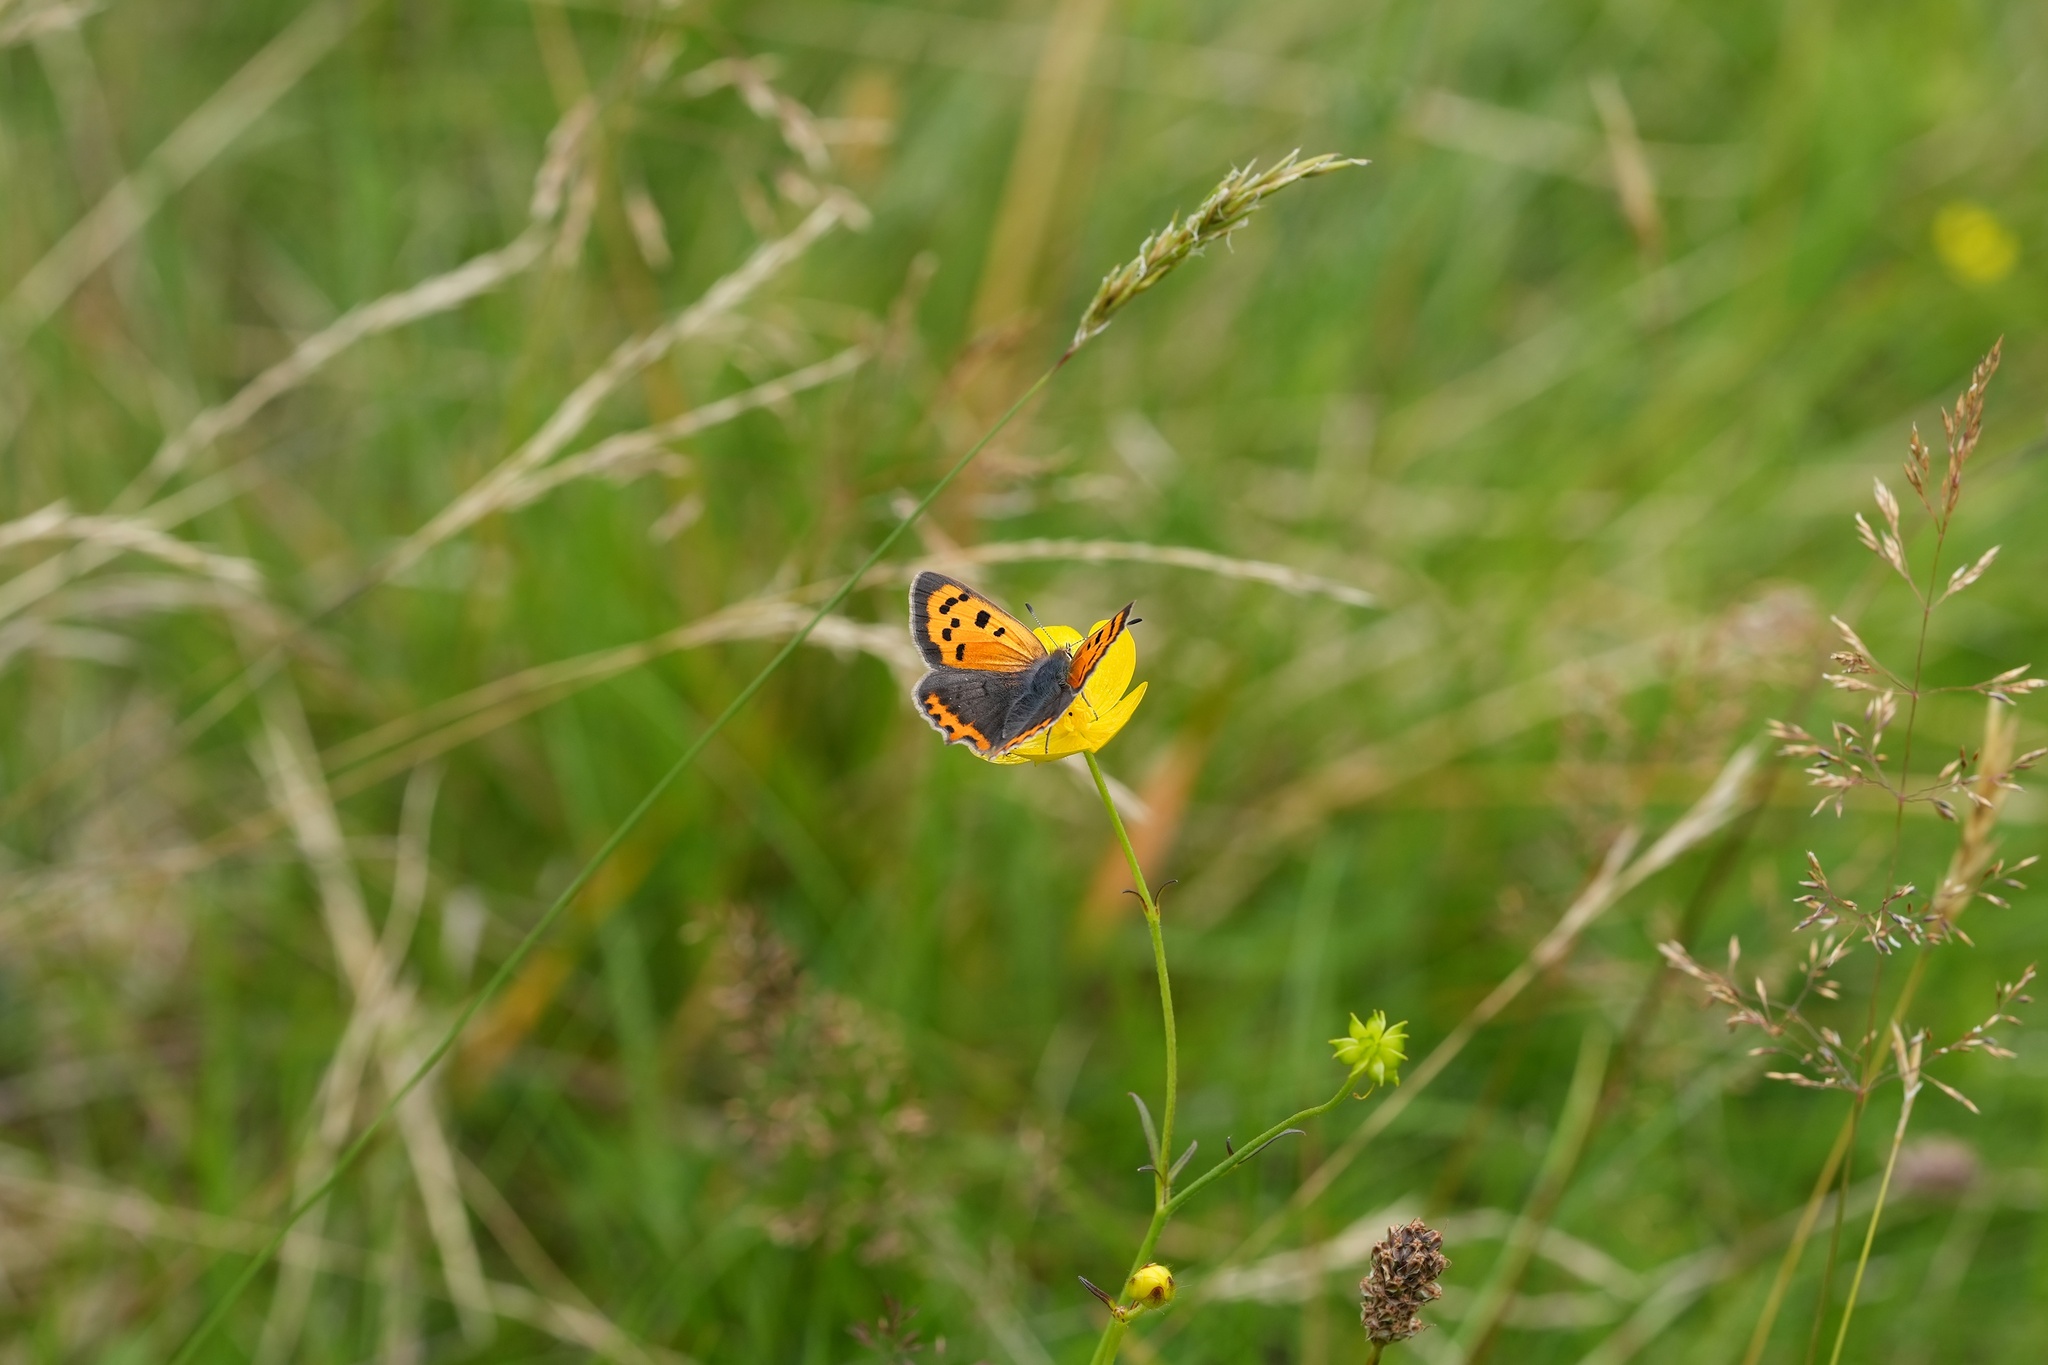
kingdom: Animalia
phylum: Arthropoda
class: Insecta
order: Lepidoptera
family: Lycaenidae
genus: Lycaena
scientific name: Lycaena phlaeas
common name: Small copper
